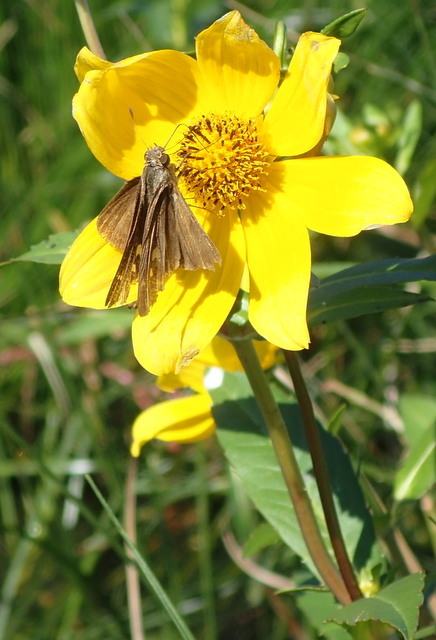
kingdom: Animalia
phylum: Arthropoda
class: Insecta
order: Lepidoptera
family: Hesperiidae
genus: Panoquina
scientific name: Panoquina ocola
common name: Ocola skipper
